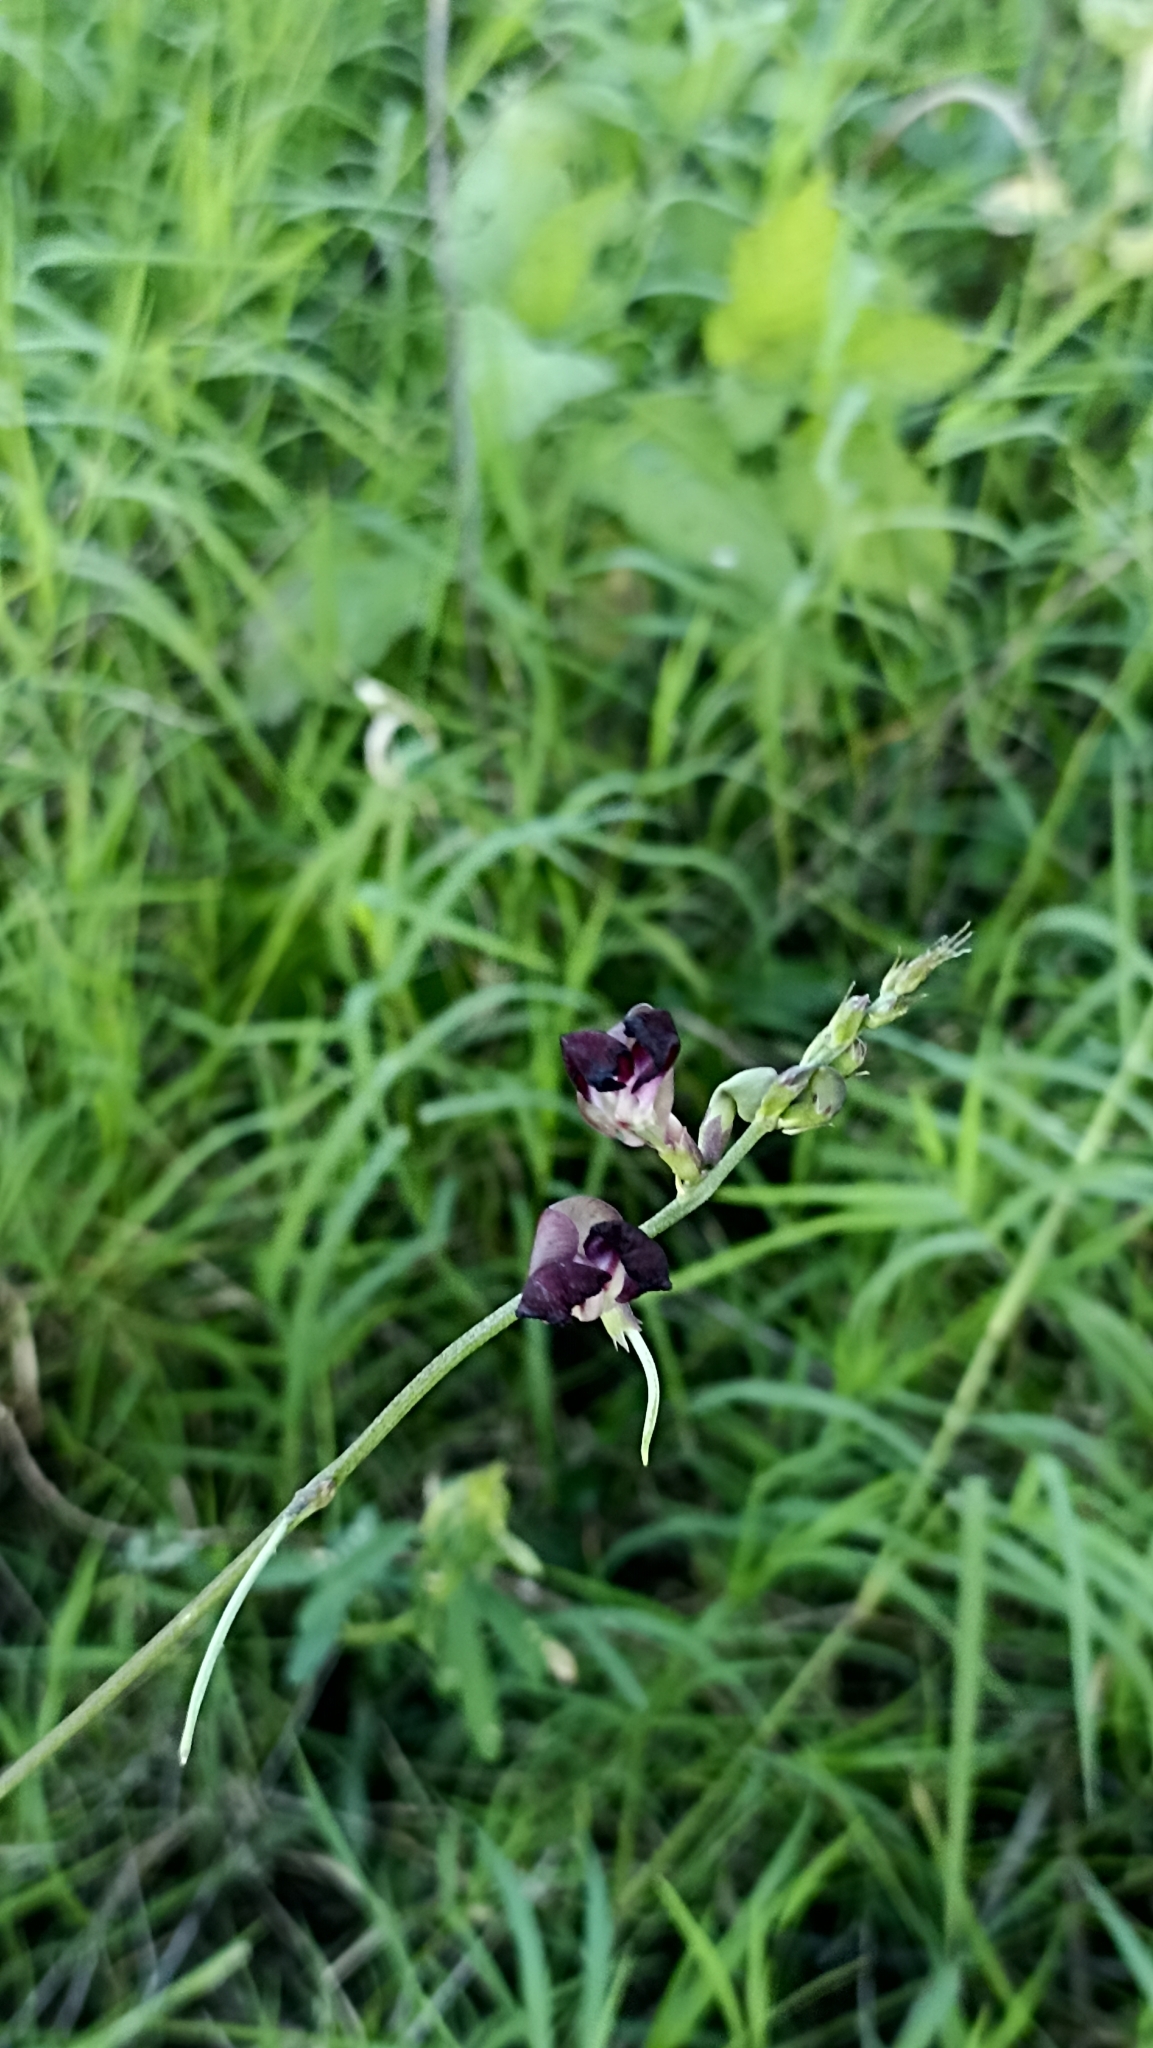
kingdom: Plantae
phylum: Tracheophyta
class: Magnoliopsida
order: Fabales
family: Fabaceae
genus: Macroptilium
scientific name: Macroptilium atropurpureum
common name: Purple bushbean
